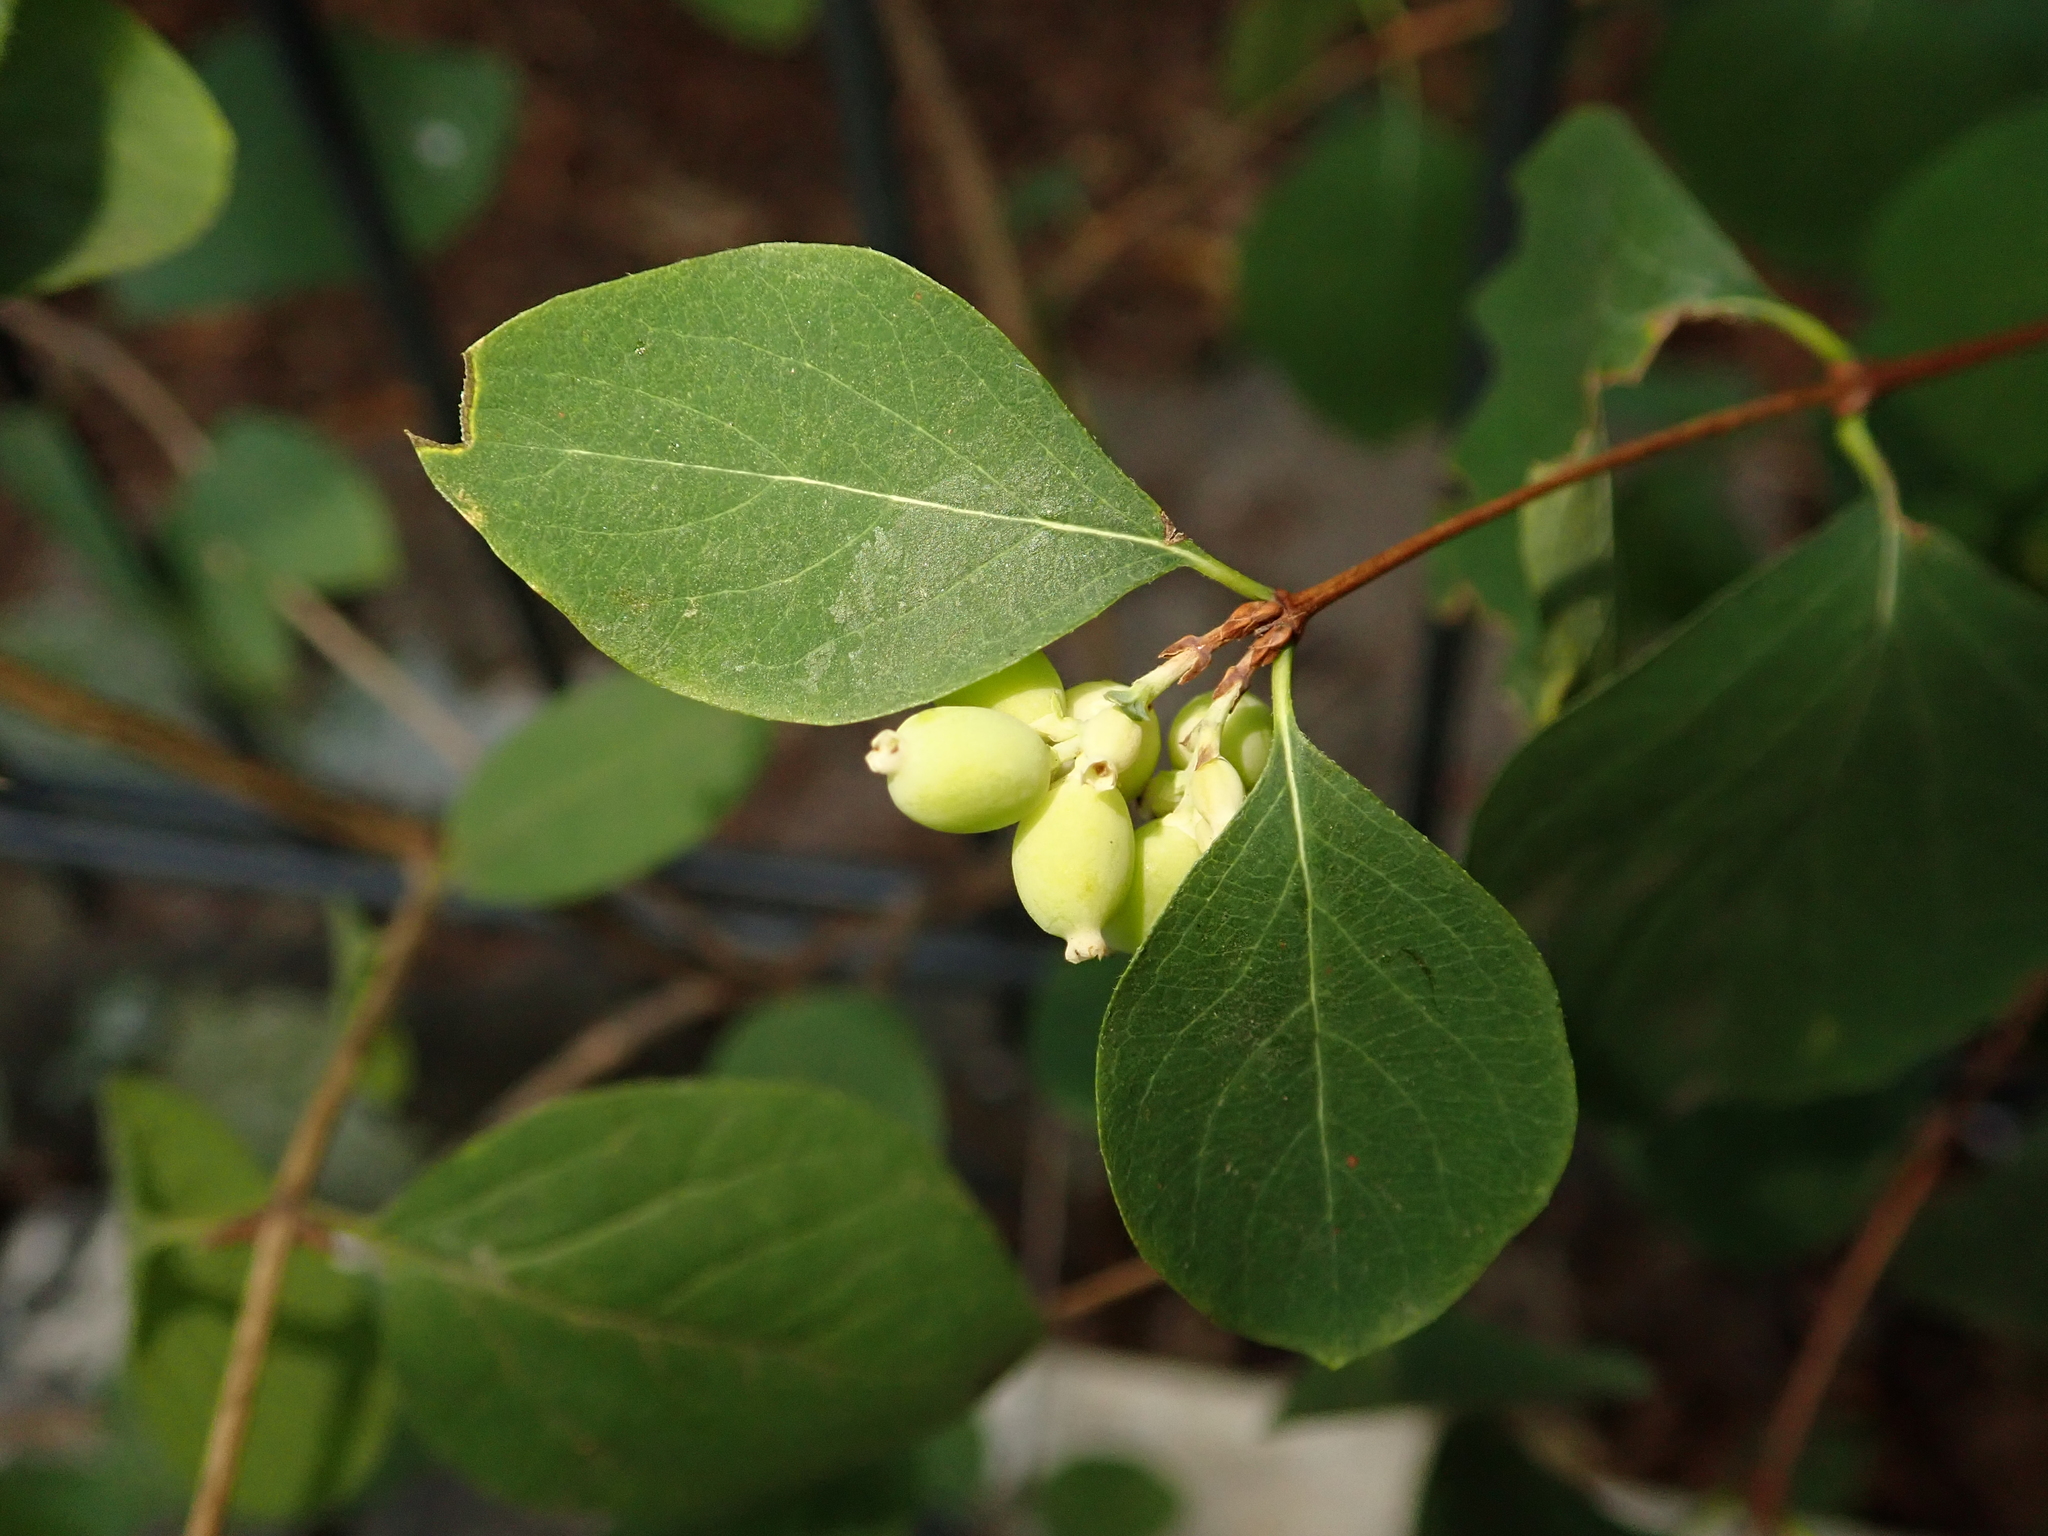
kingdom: Plantae
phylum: Tracheophyta
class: Magnoliopsida
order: Dipsacales
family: Caprifoliaceae
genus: Symphoricarpos
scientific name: Symphoricarpos albus
